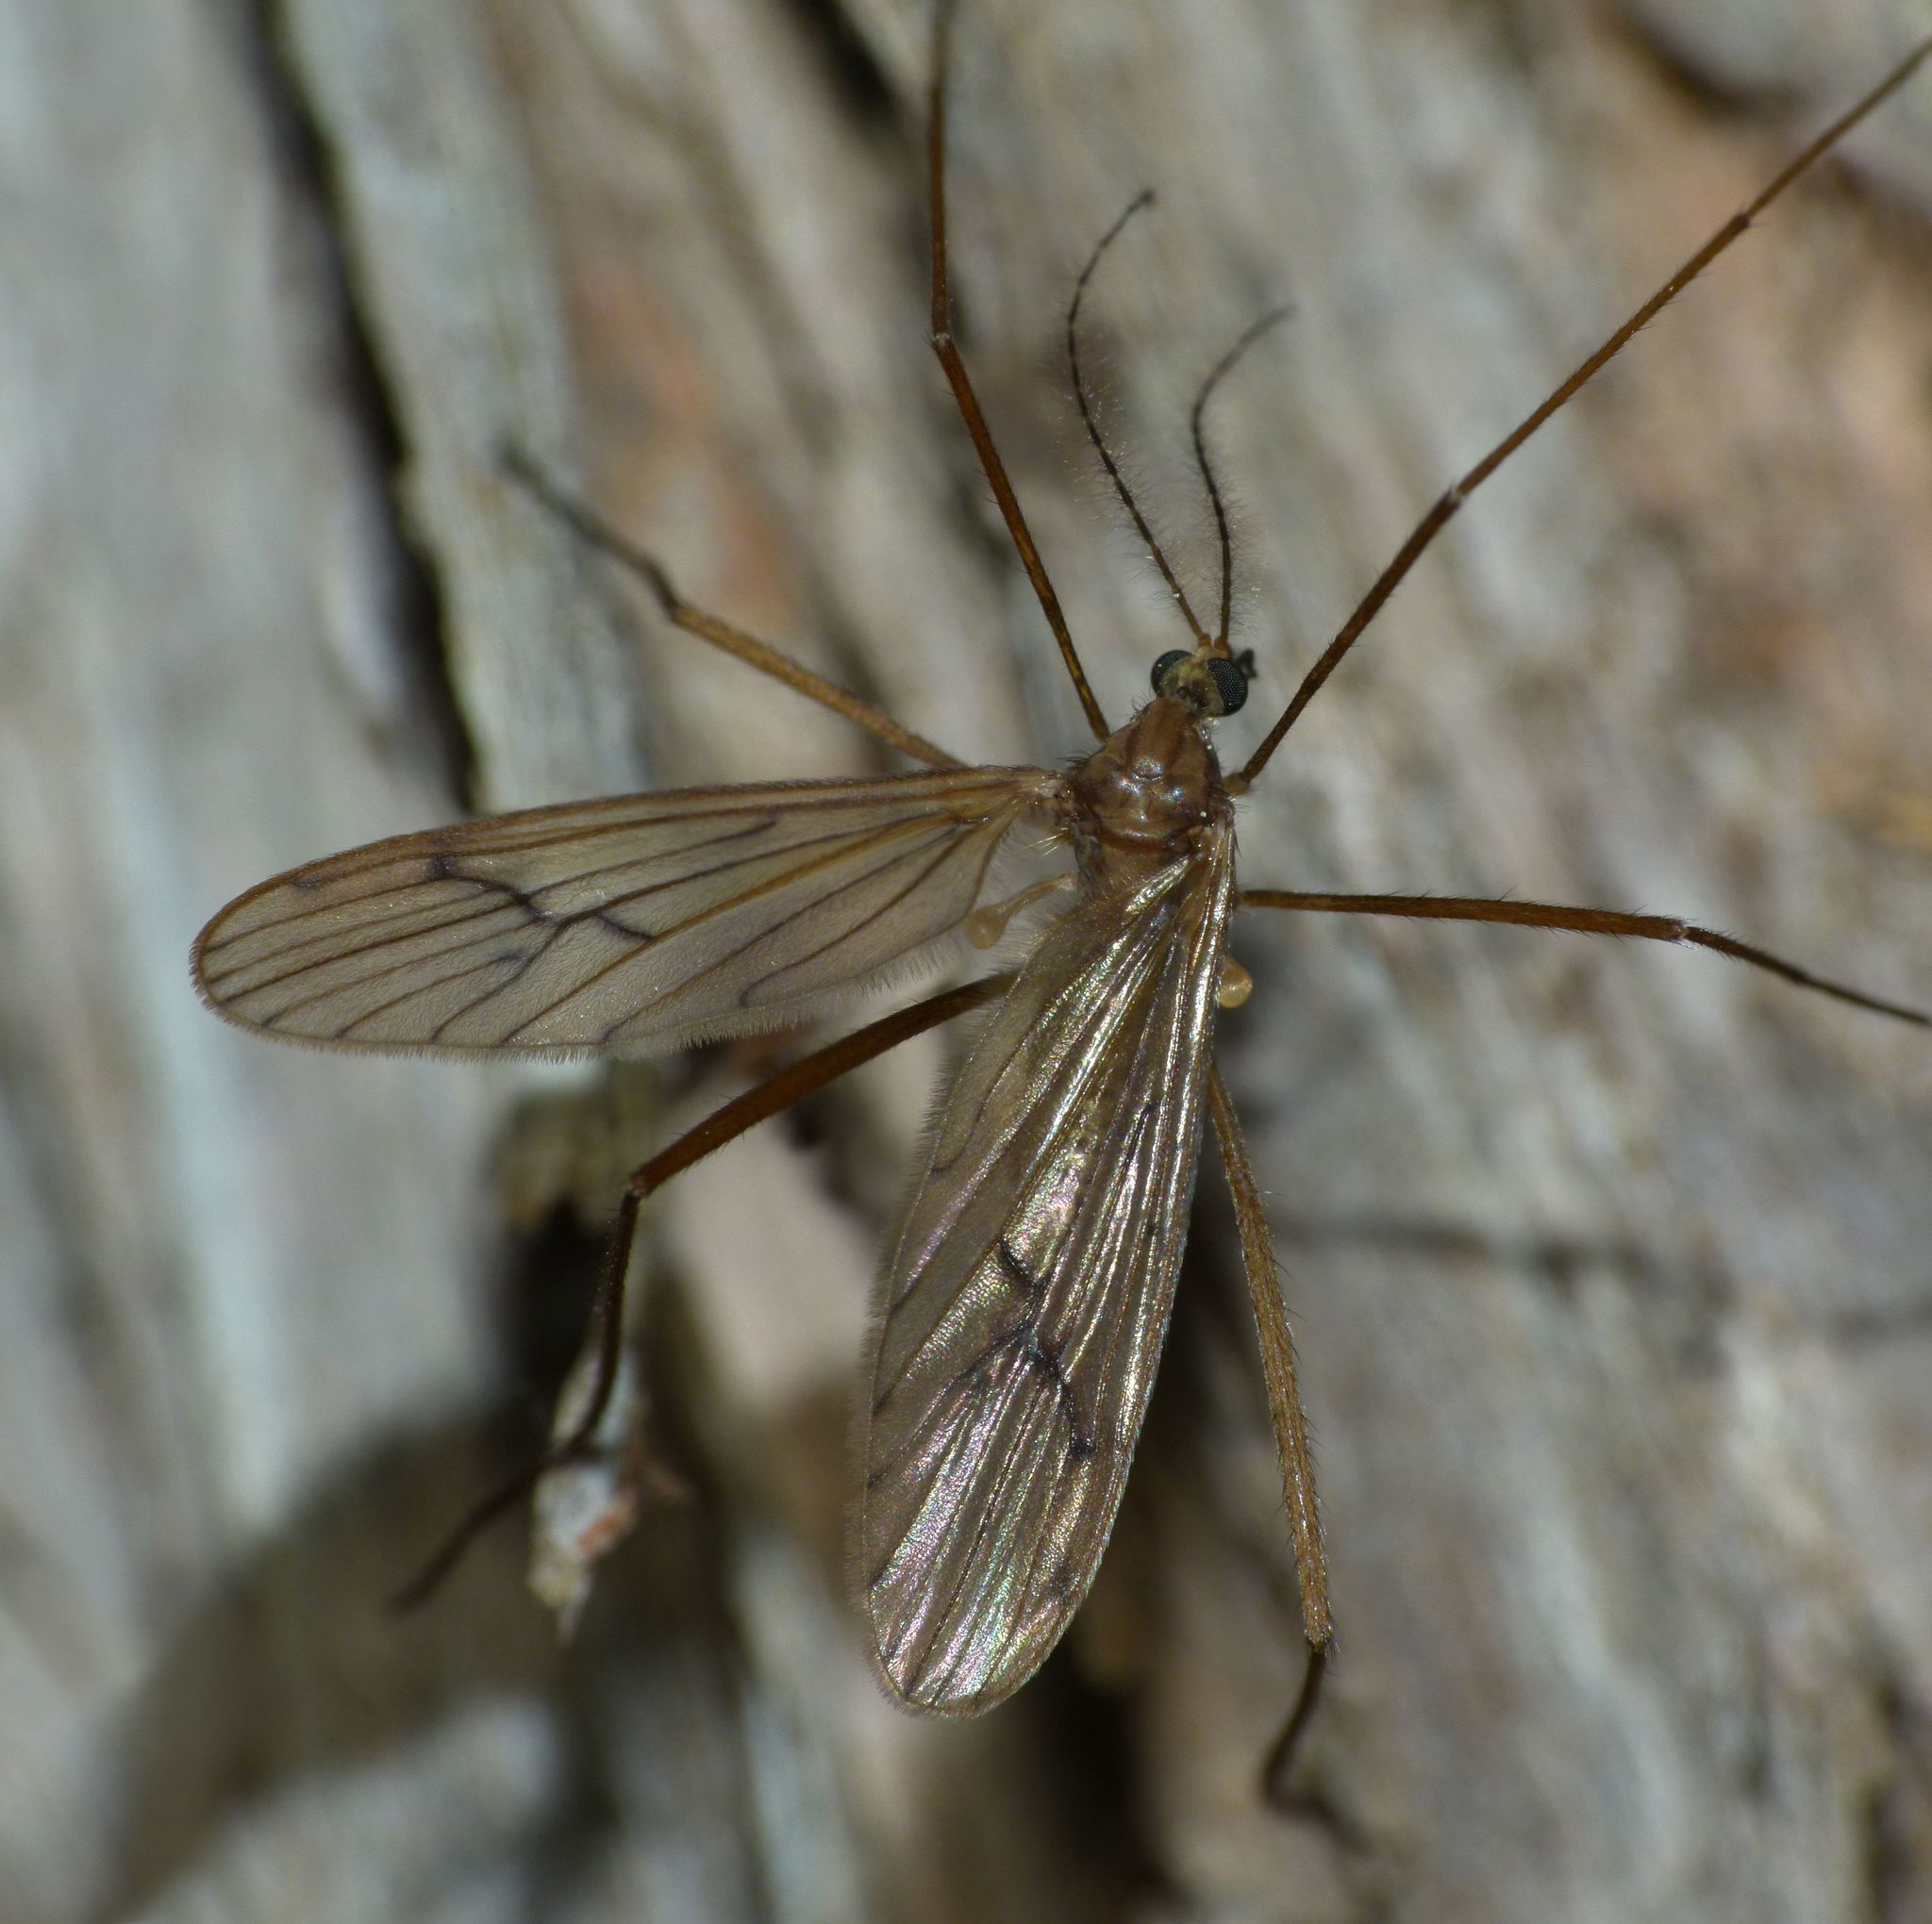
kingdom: Animalia
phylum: Arthropoda
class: Insecta
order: Diptera
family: Limoniidae
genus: Amphineurus
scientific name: Amphineurus insulsus
